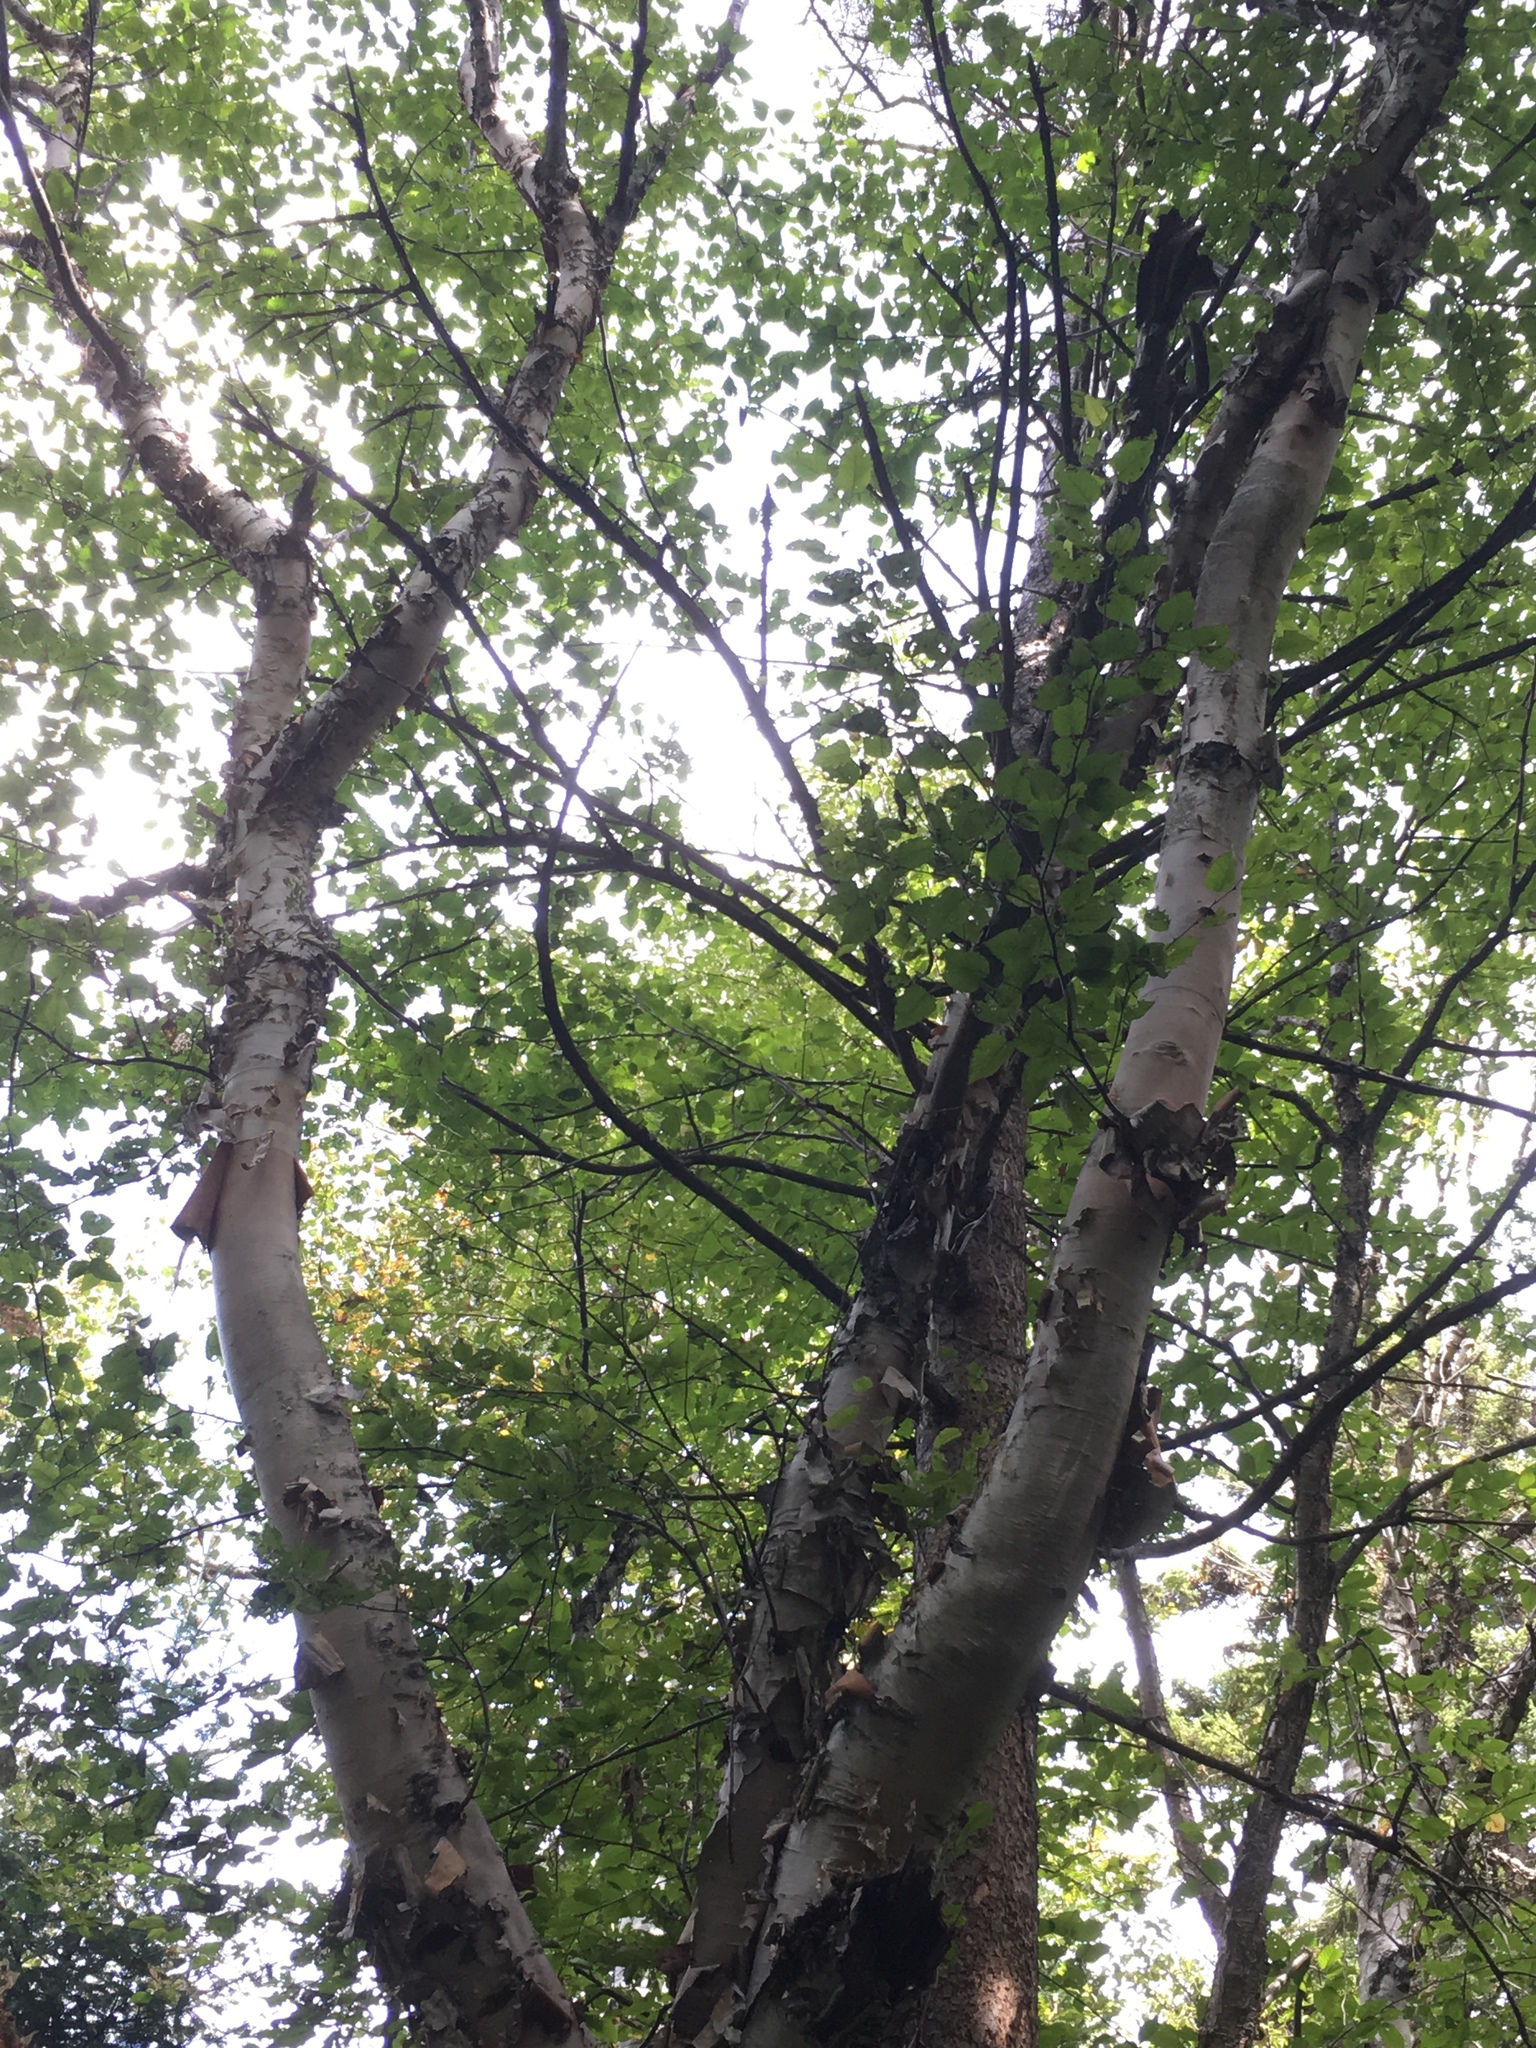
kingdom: Plantae
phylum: Tracheophyta
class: Magnoliopsida
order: Fagales
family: Betulaceae
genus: Betula
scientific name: Betula cordifolia
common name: Mountain white birch
